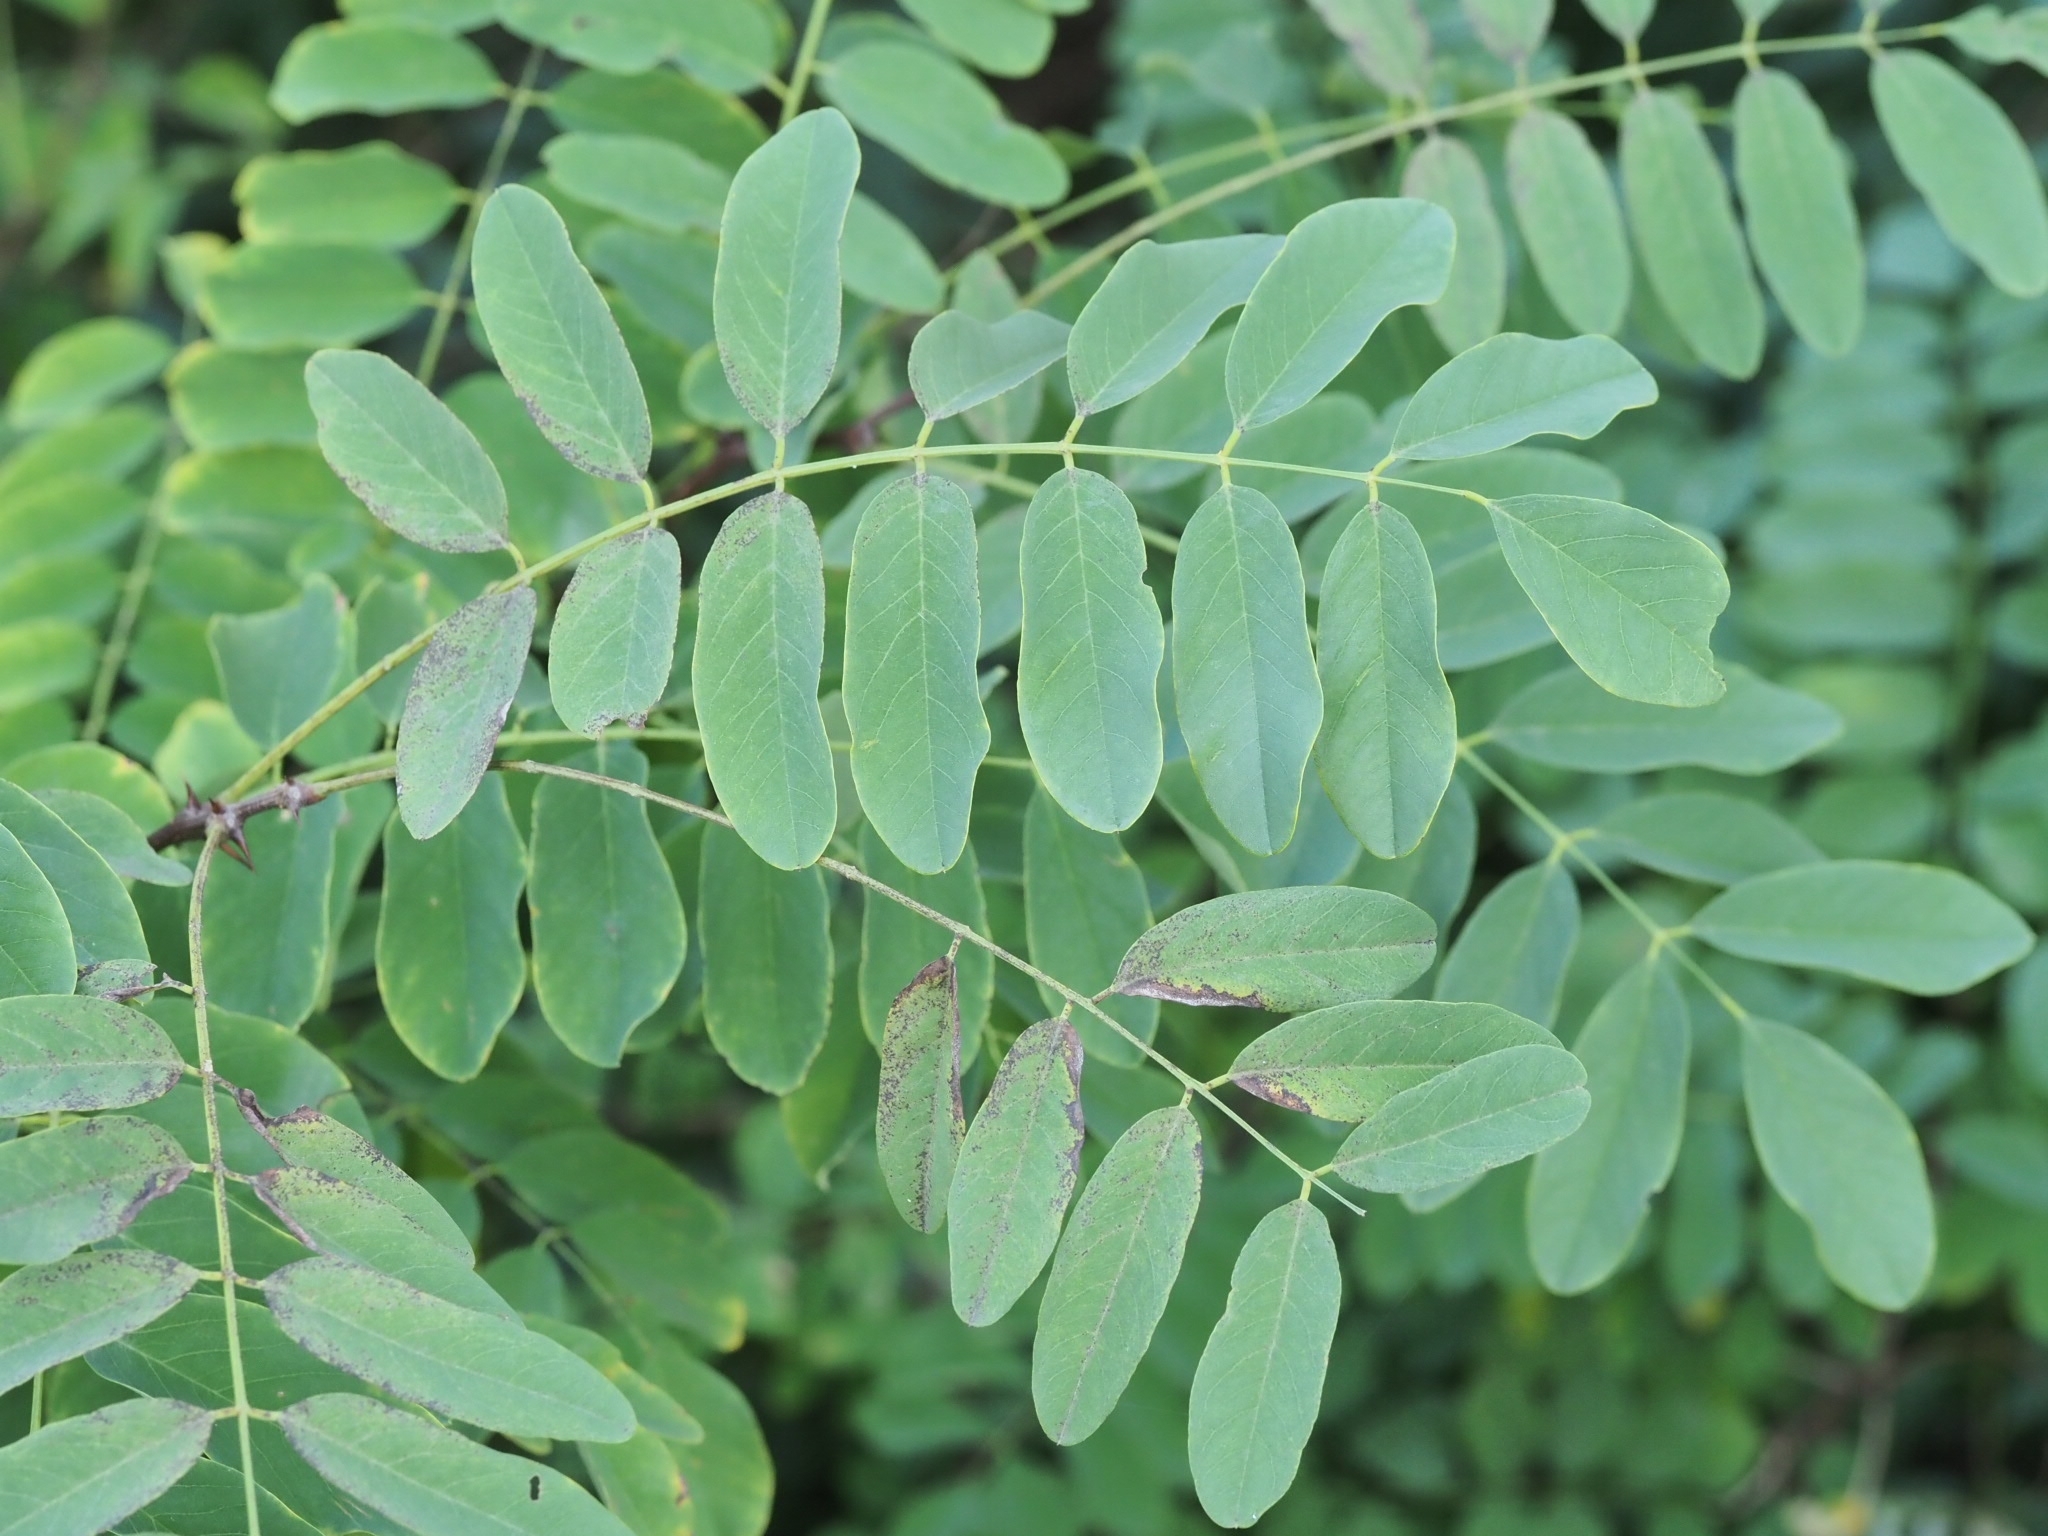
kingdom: Plantae
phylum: Tracheophyta
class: Magnoliopsida
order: Fabales
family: Fabaceae
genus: Robinia
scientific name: Robinia pseudoacacia
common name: Black locust
